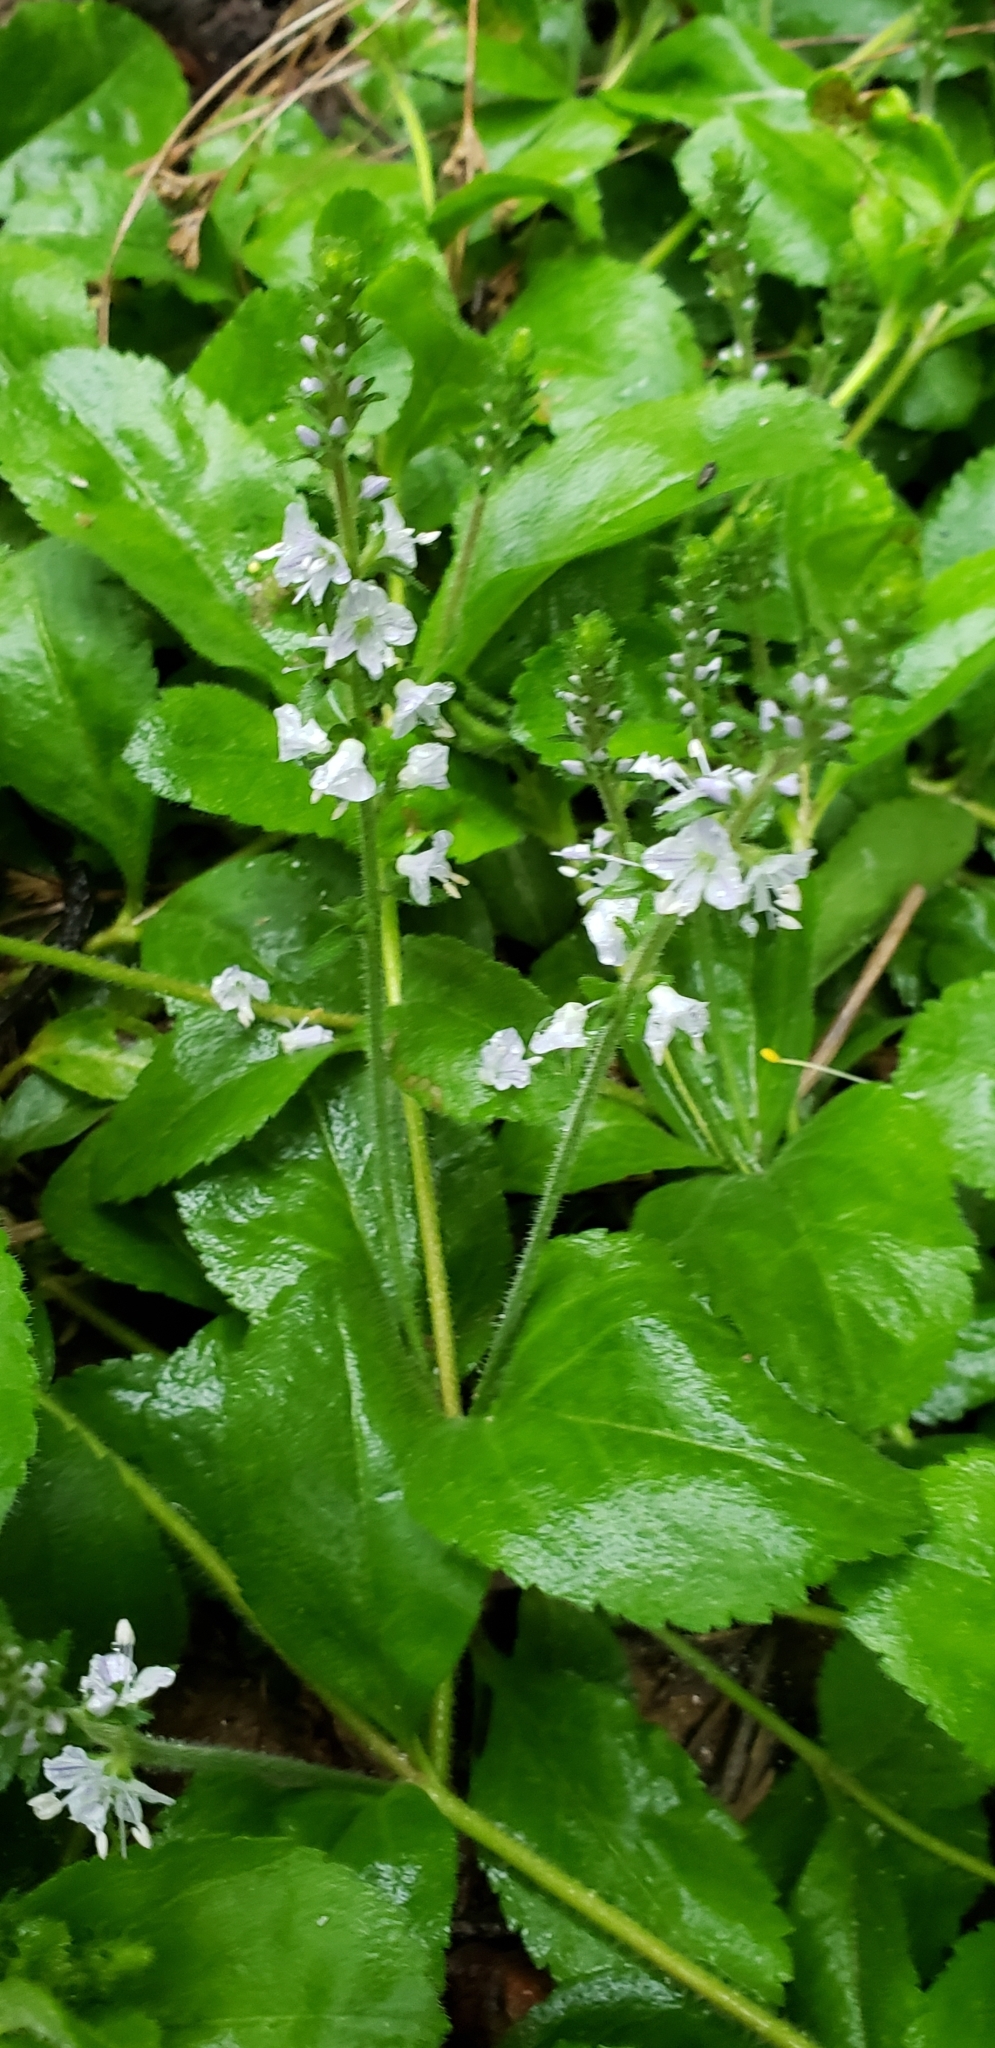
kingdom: Plantae
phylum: Tracheophyta
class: Magnoliopsida
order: Lamiales
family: Plantaginaceae
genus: Veronica
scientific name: Veronica officinalis
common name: Common speedwell
